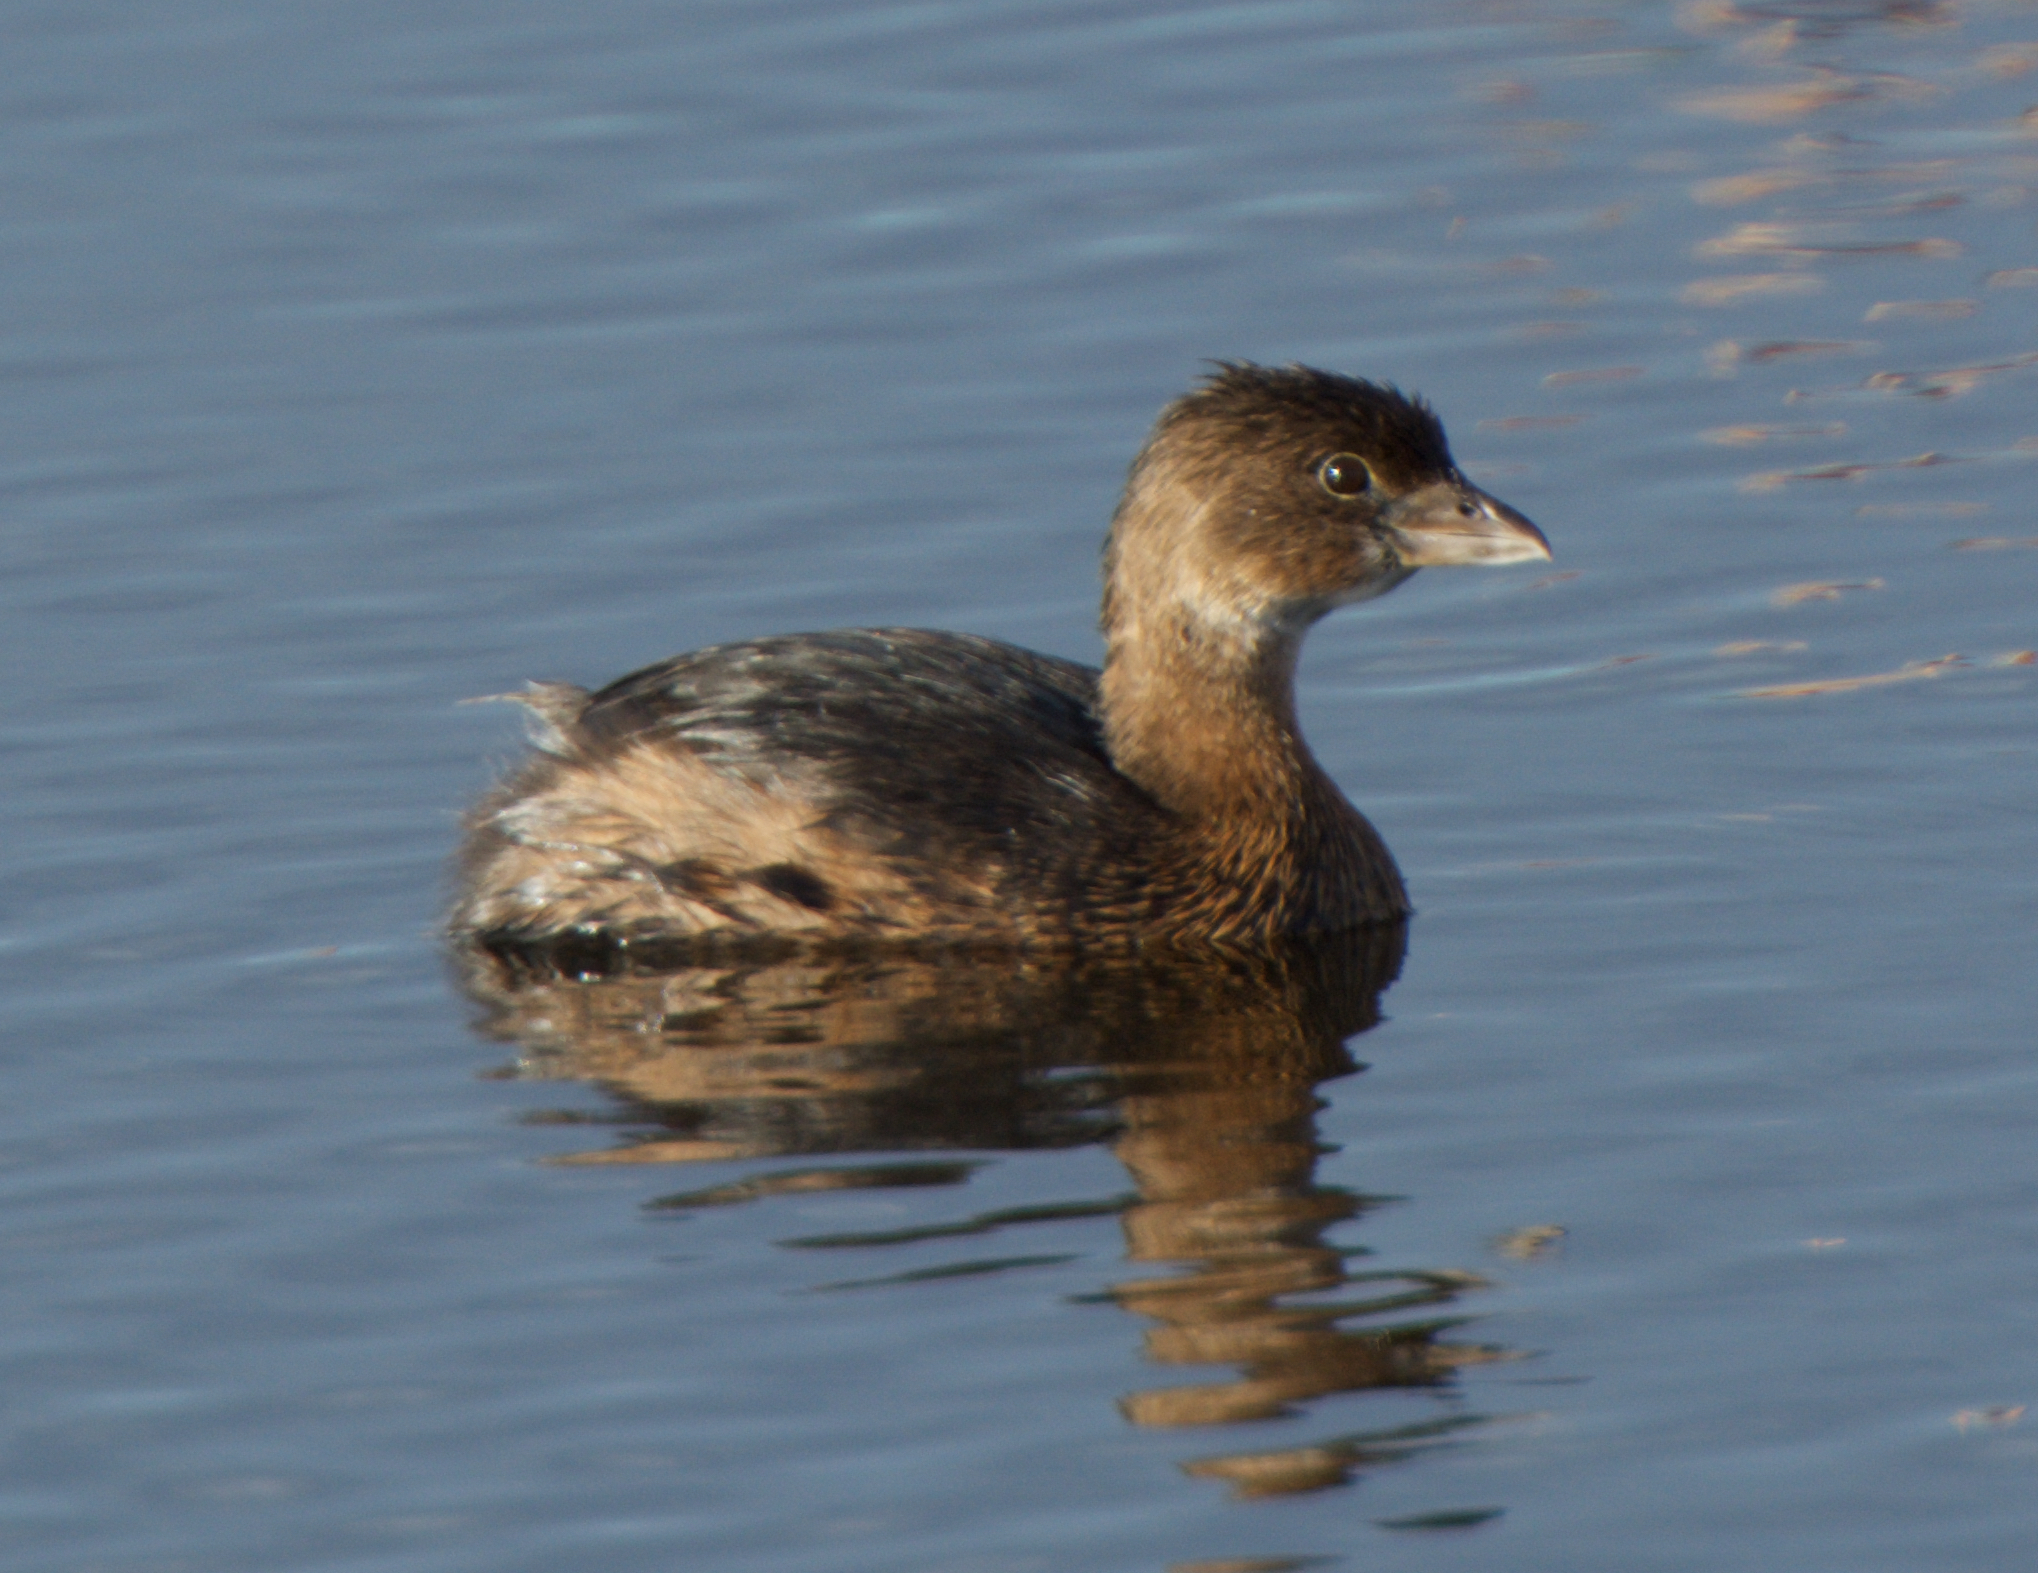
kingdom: Animalia
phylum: Chordata
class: Aves
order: Podicipediformes
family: Podicipedidae
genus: Podilymbus
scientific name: Podilymbus podiceps
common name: Pied-billed grebe
